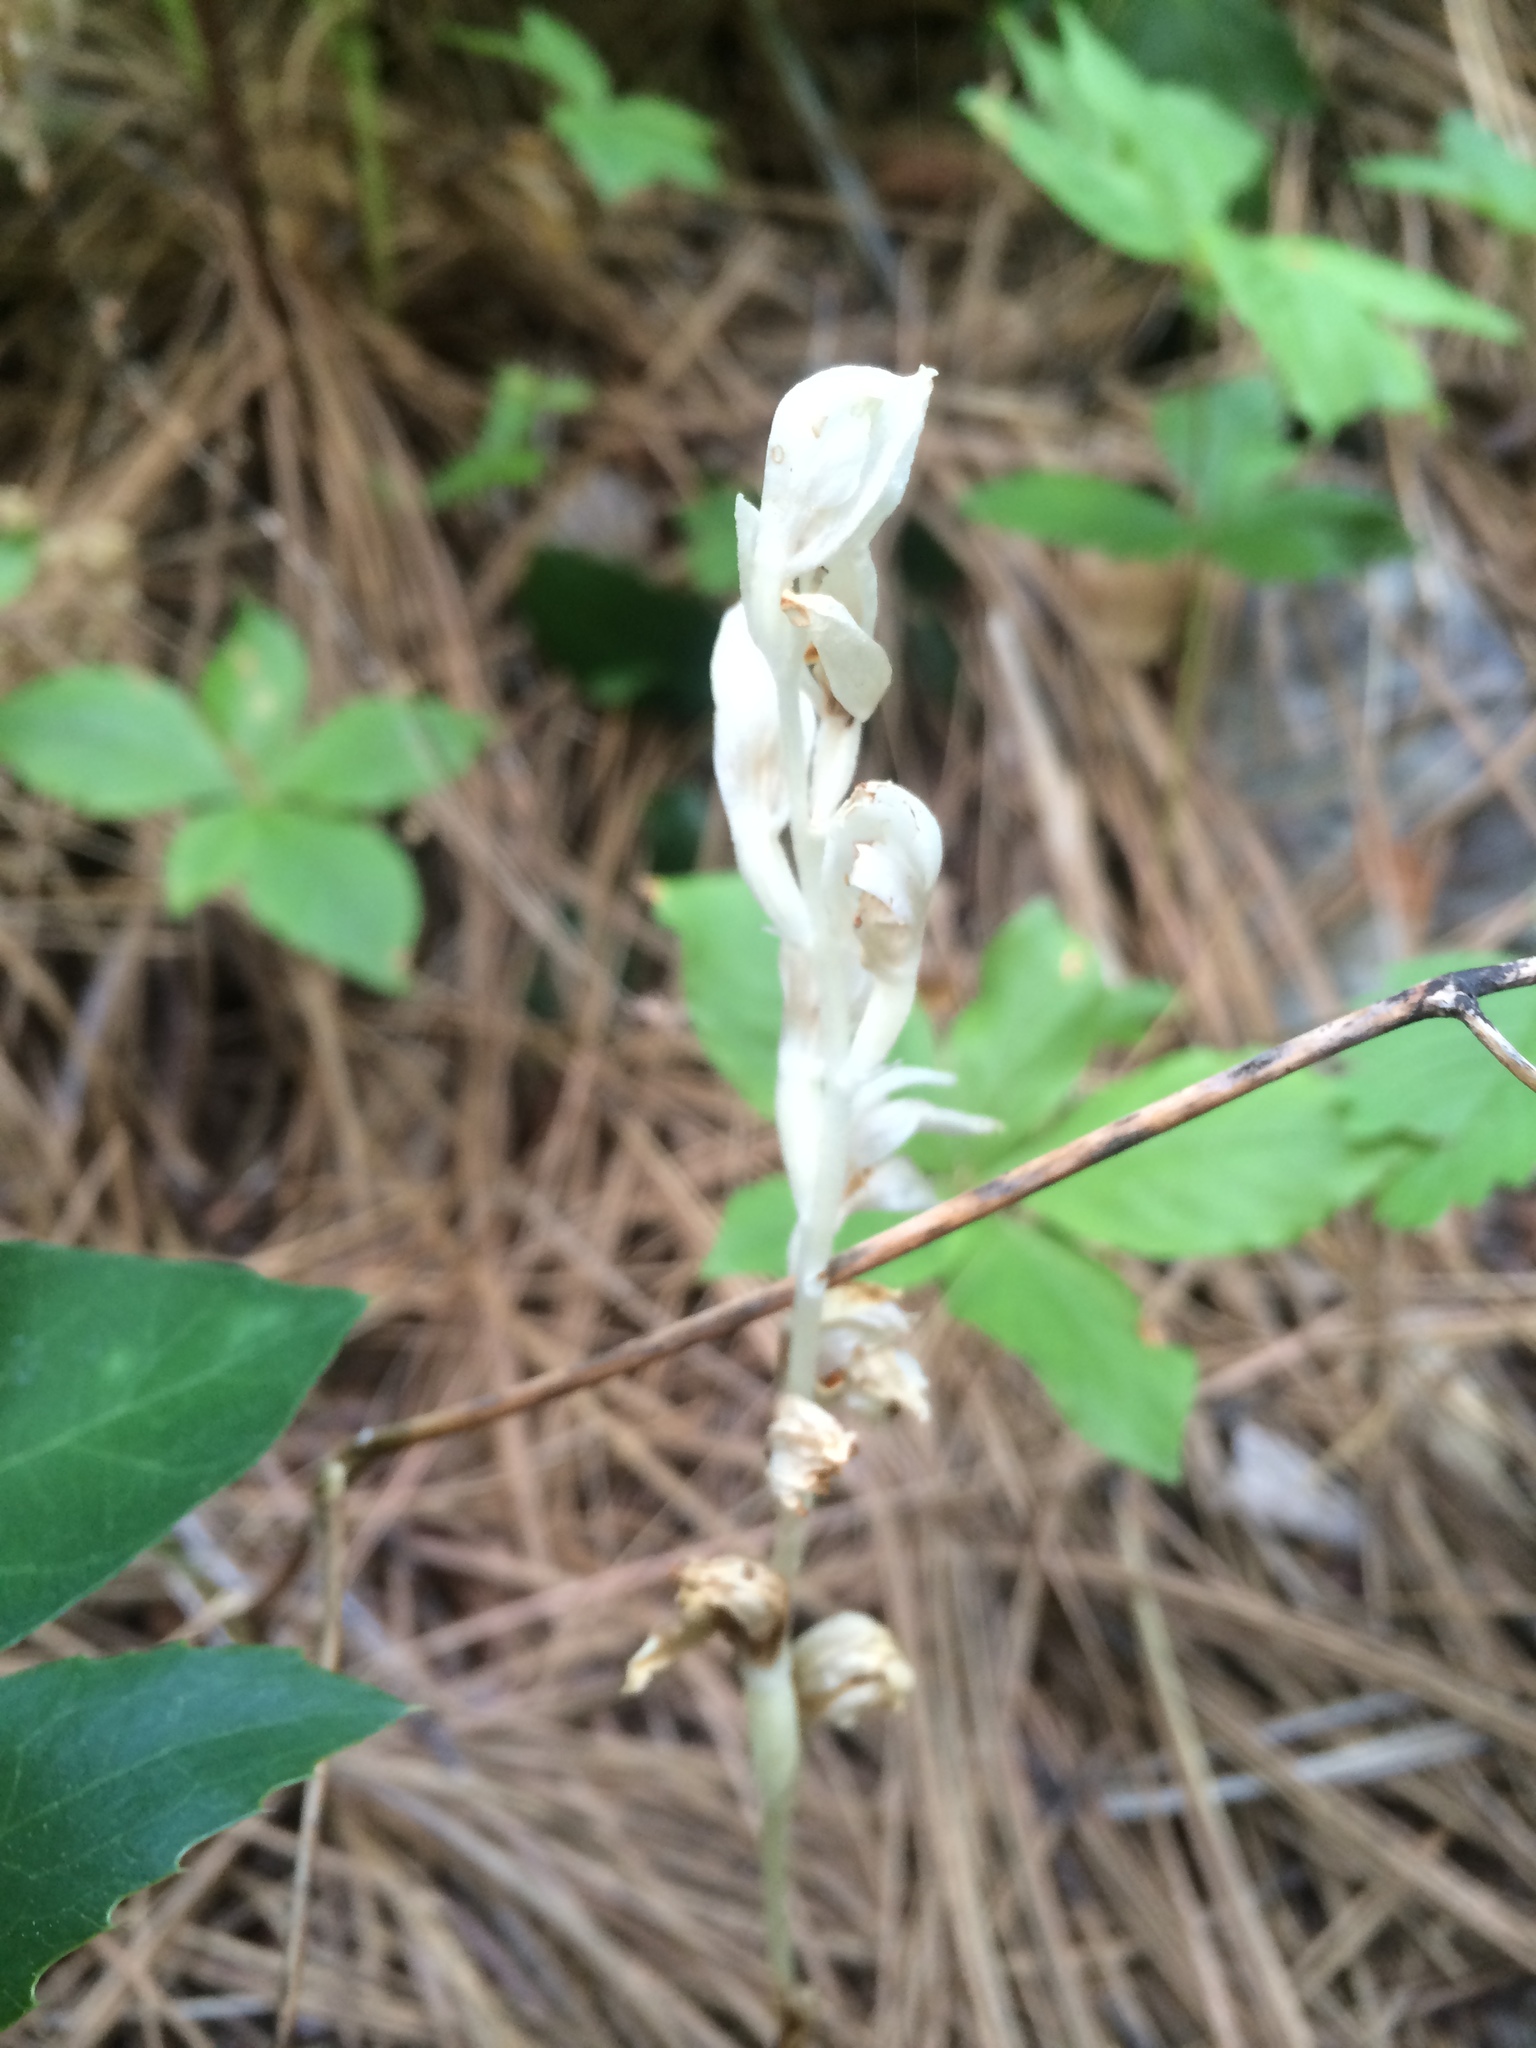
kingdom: Plantae
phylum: Tracheophyta
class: Liliopsida
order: Asparagales
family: Orchidaceae
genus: Cephalanthera
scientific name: Cephalanthera austiniae
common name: Phantom orchid
